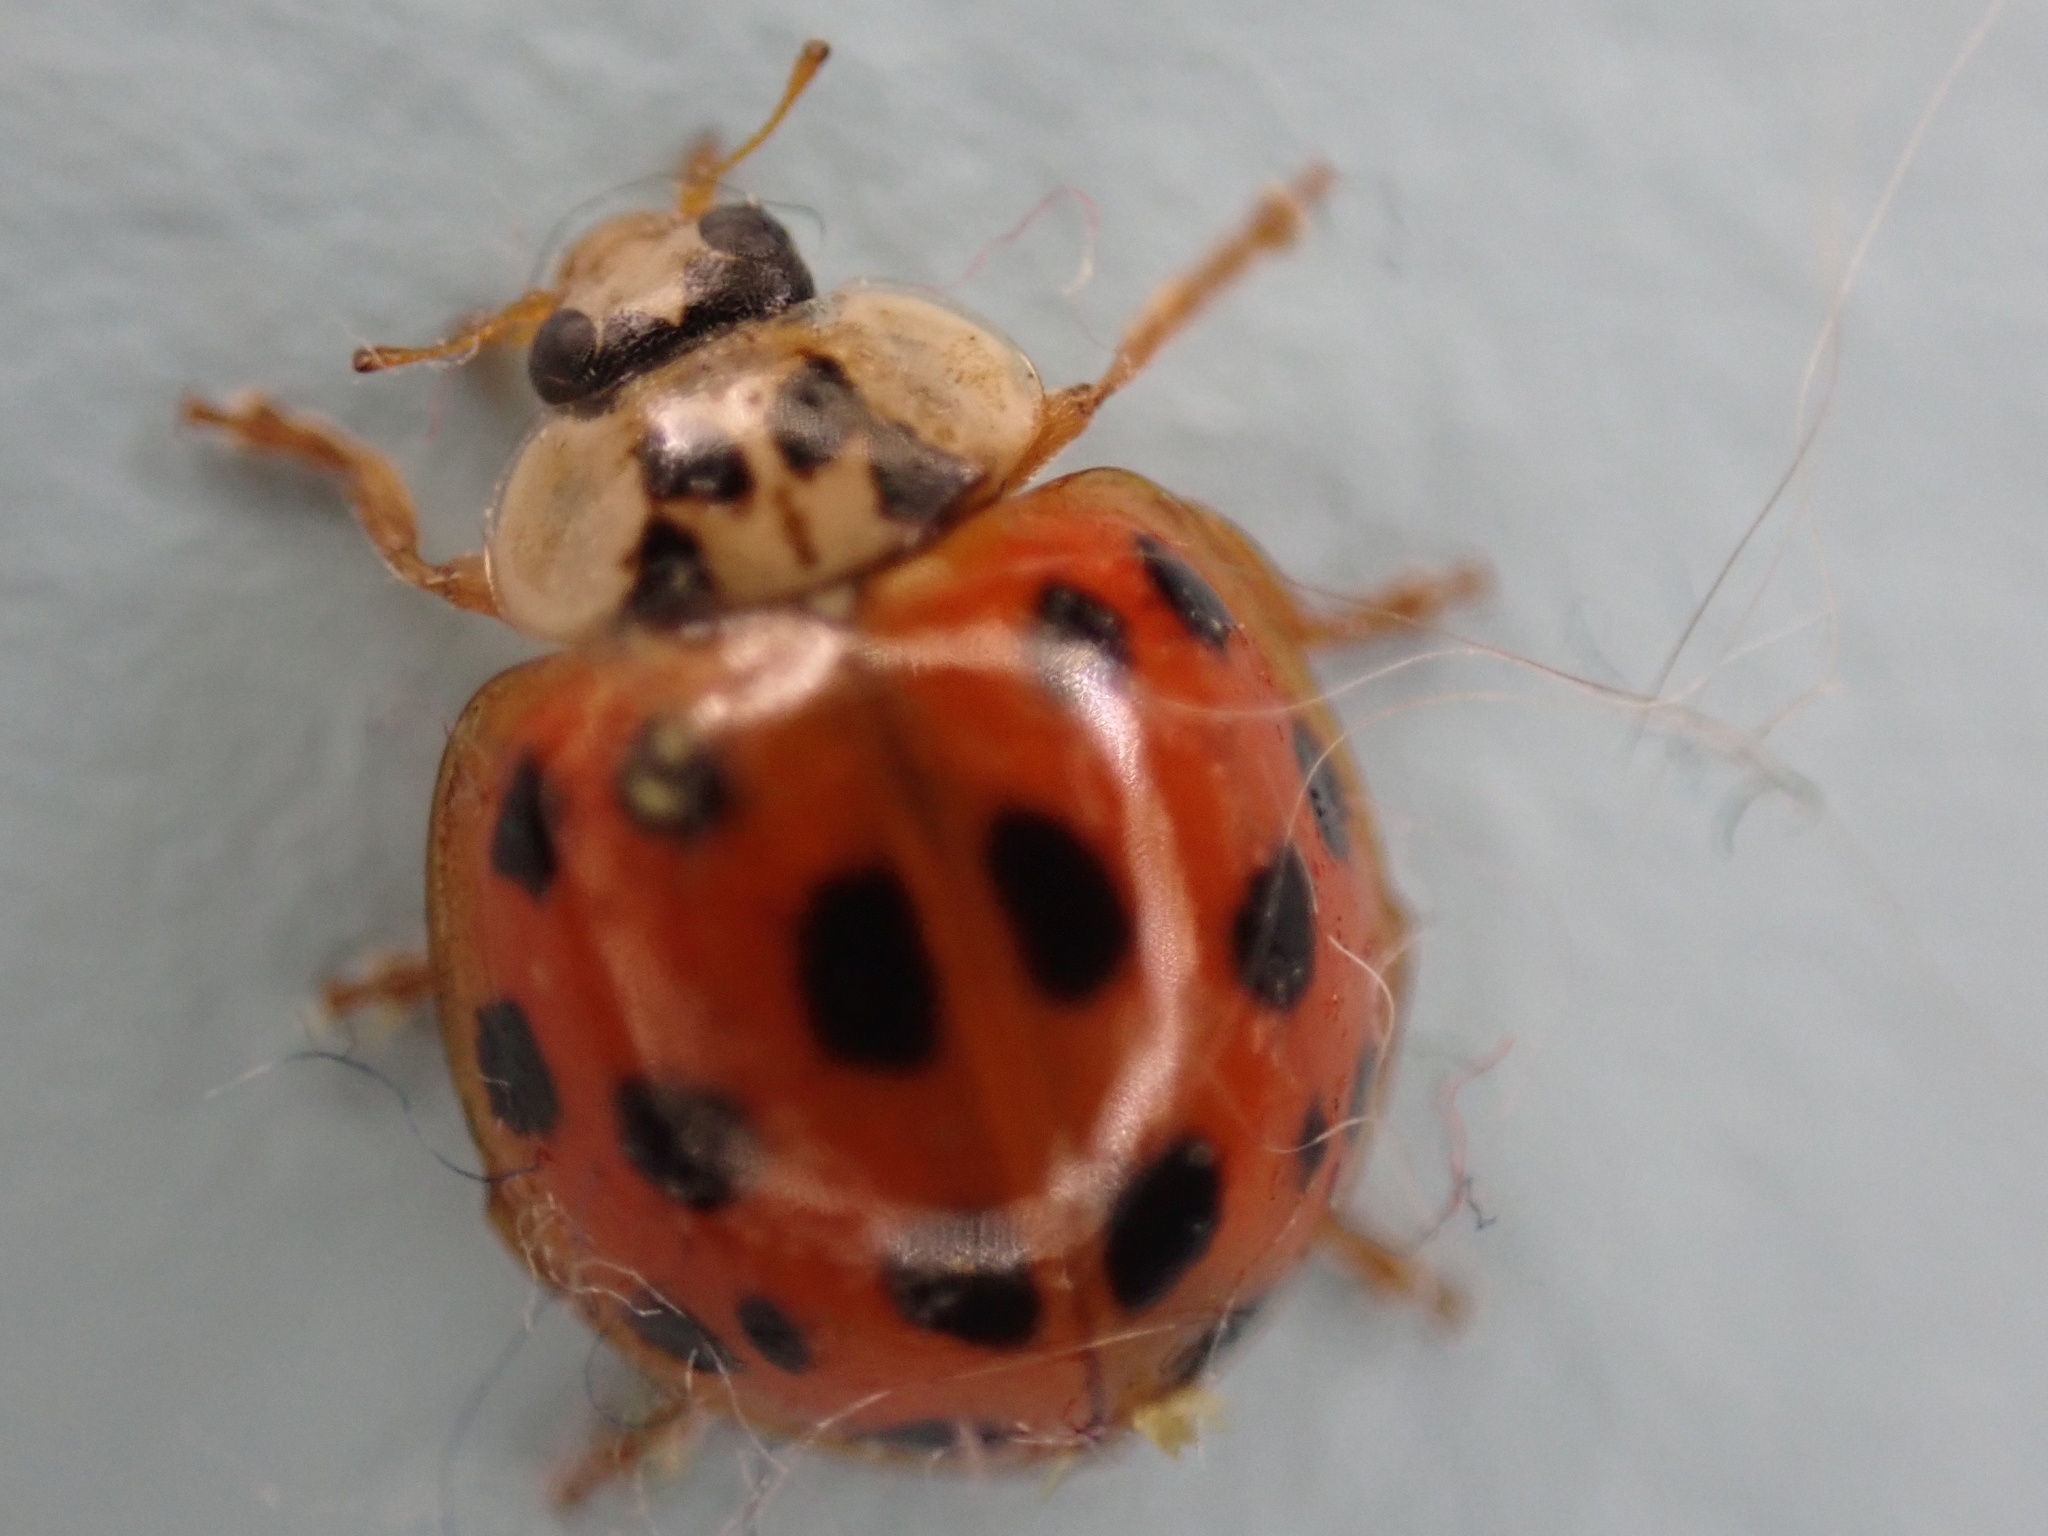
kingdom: Animalia
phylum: Arthropoda
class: Insecta
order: Coleoptera
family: Coccinellidae
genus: Harmonia
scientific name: Harmonia axyridis
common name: Harlequin ladybird
